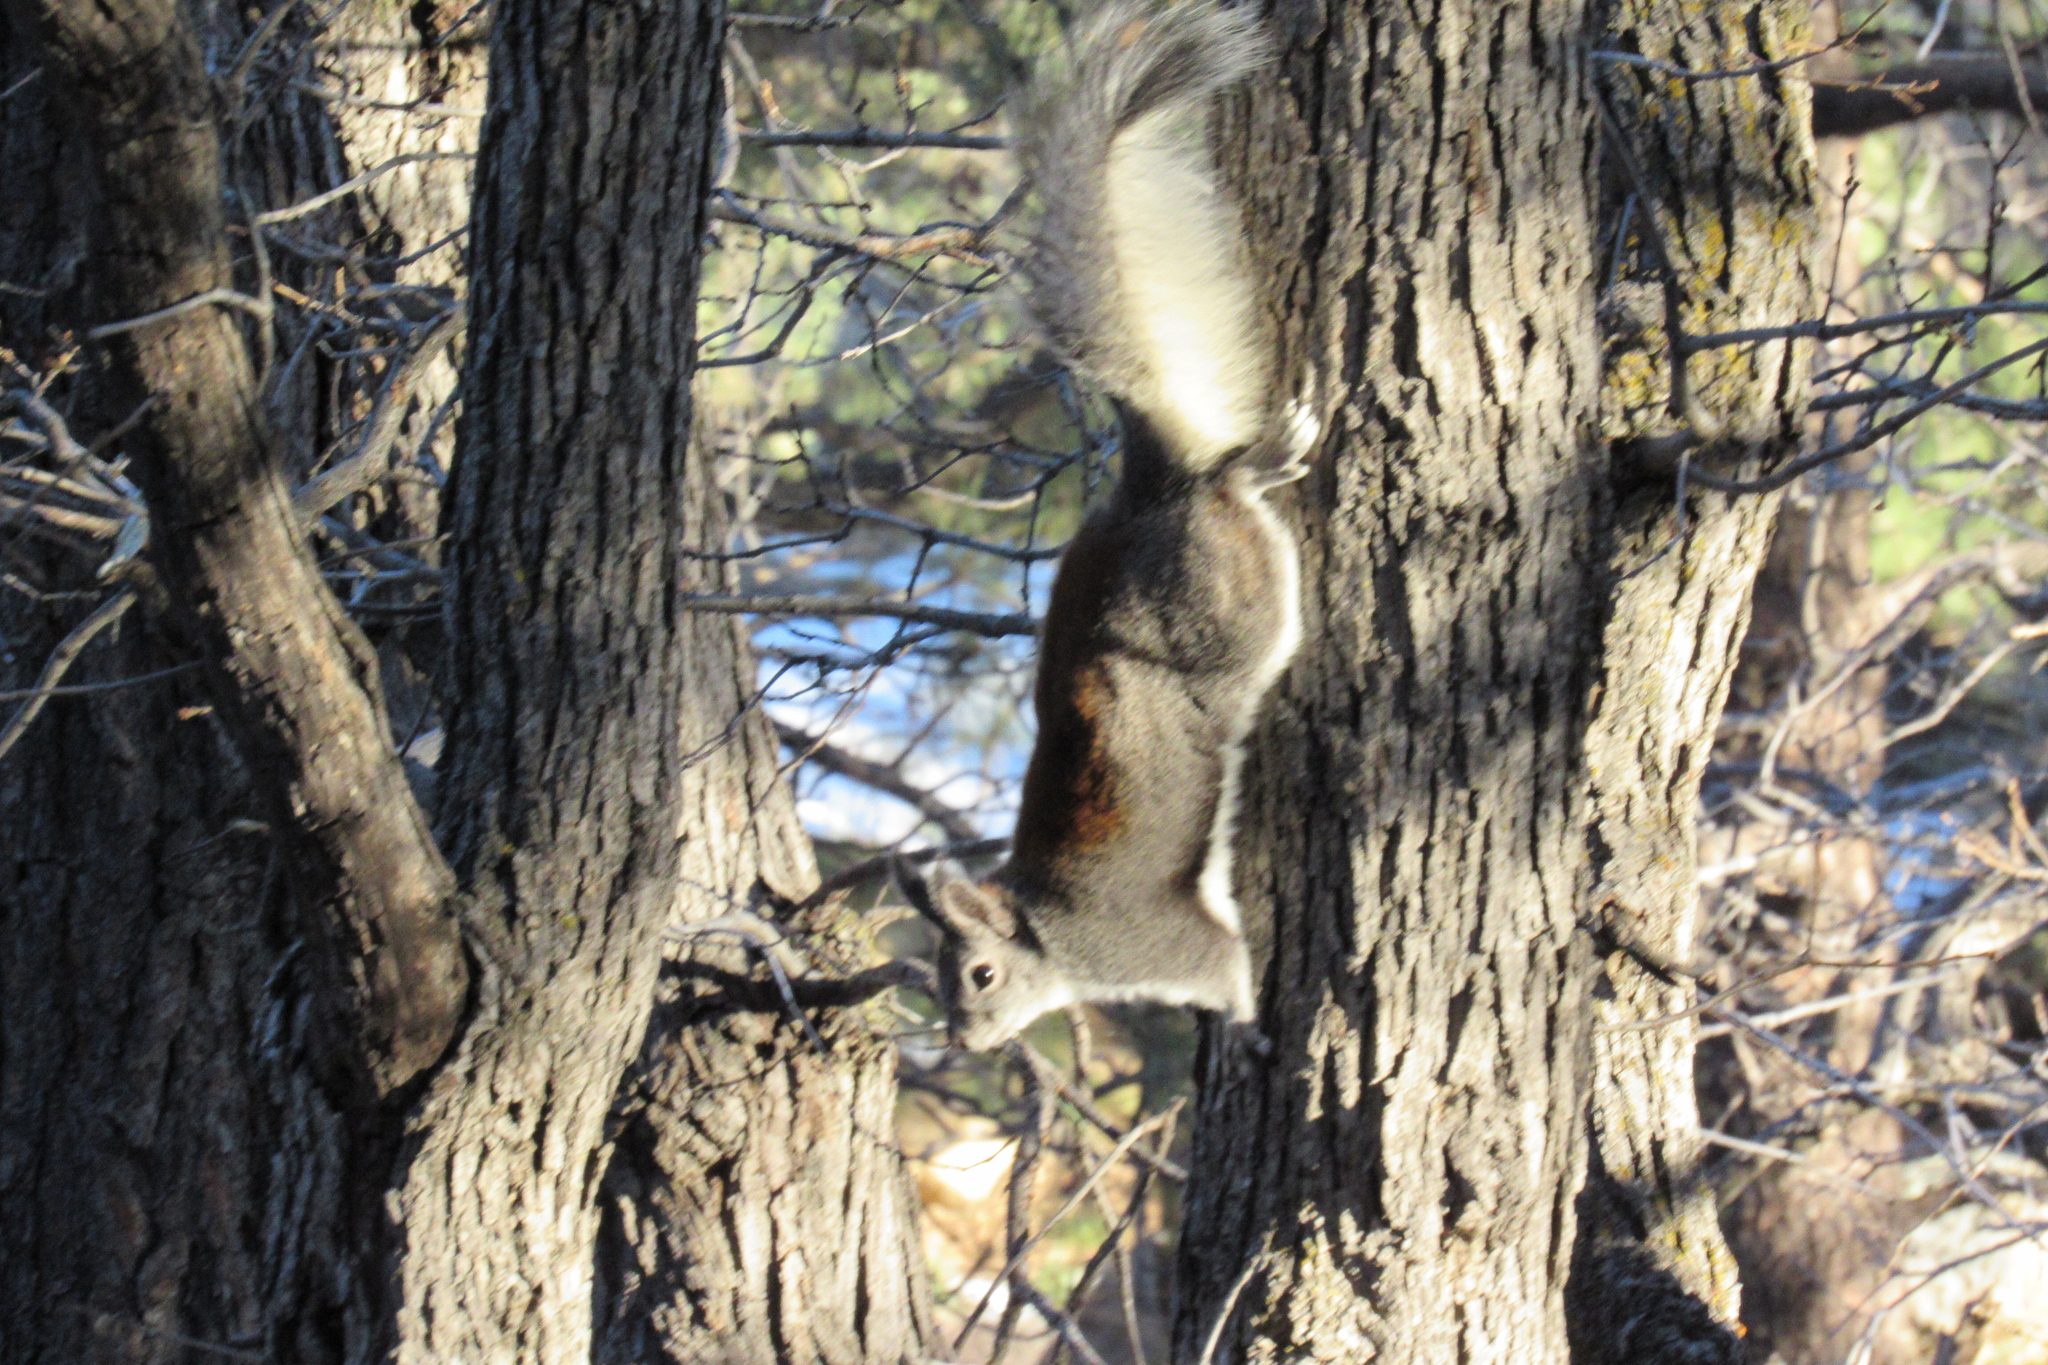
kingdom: Animalia
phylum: Chordata
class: Mammalia
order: Rodentia
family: Sciuridae
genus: Sciurus
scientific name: Sciurus aberti
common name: Abert's squirrel
